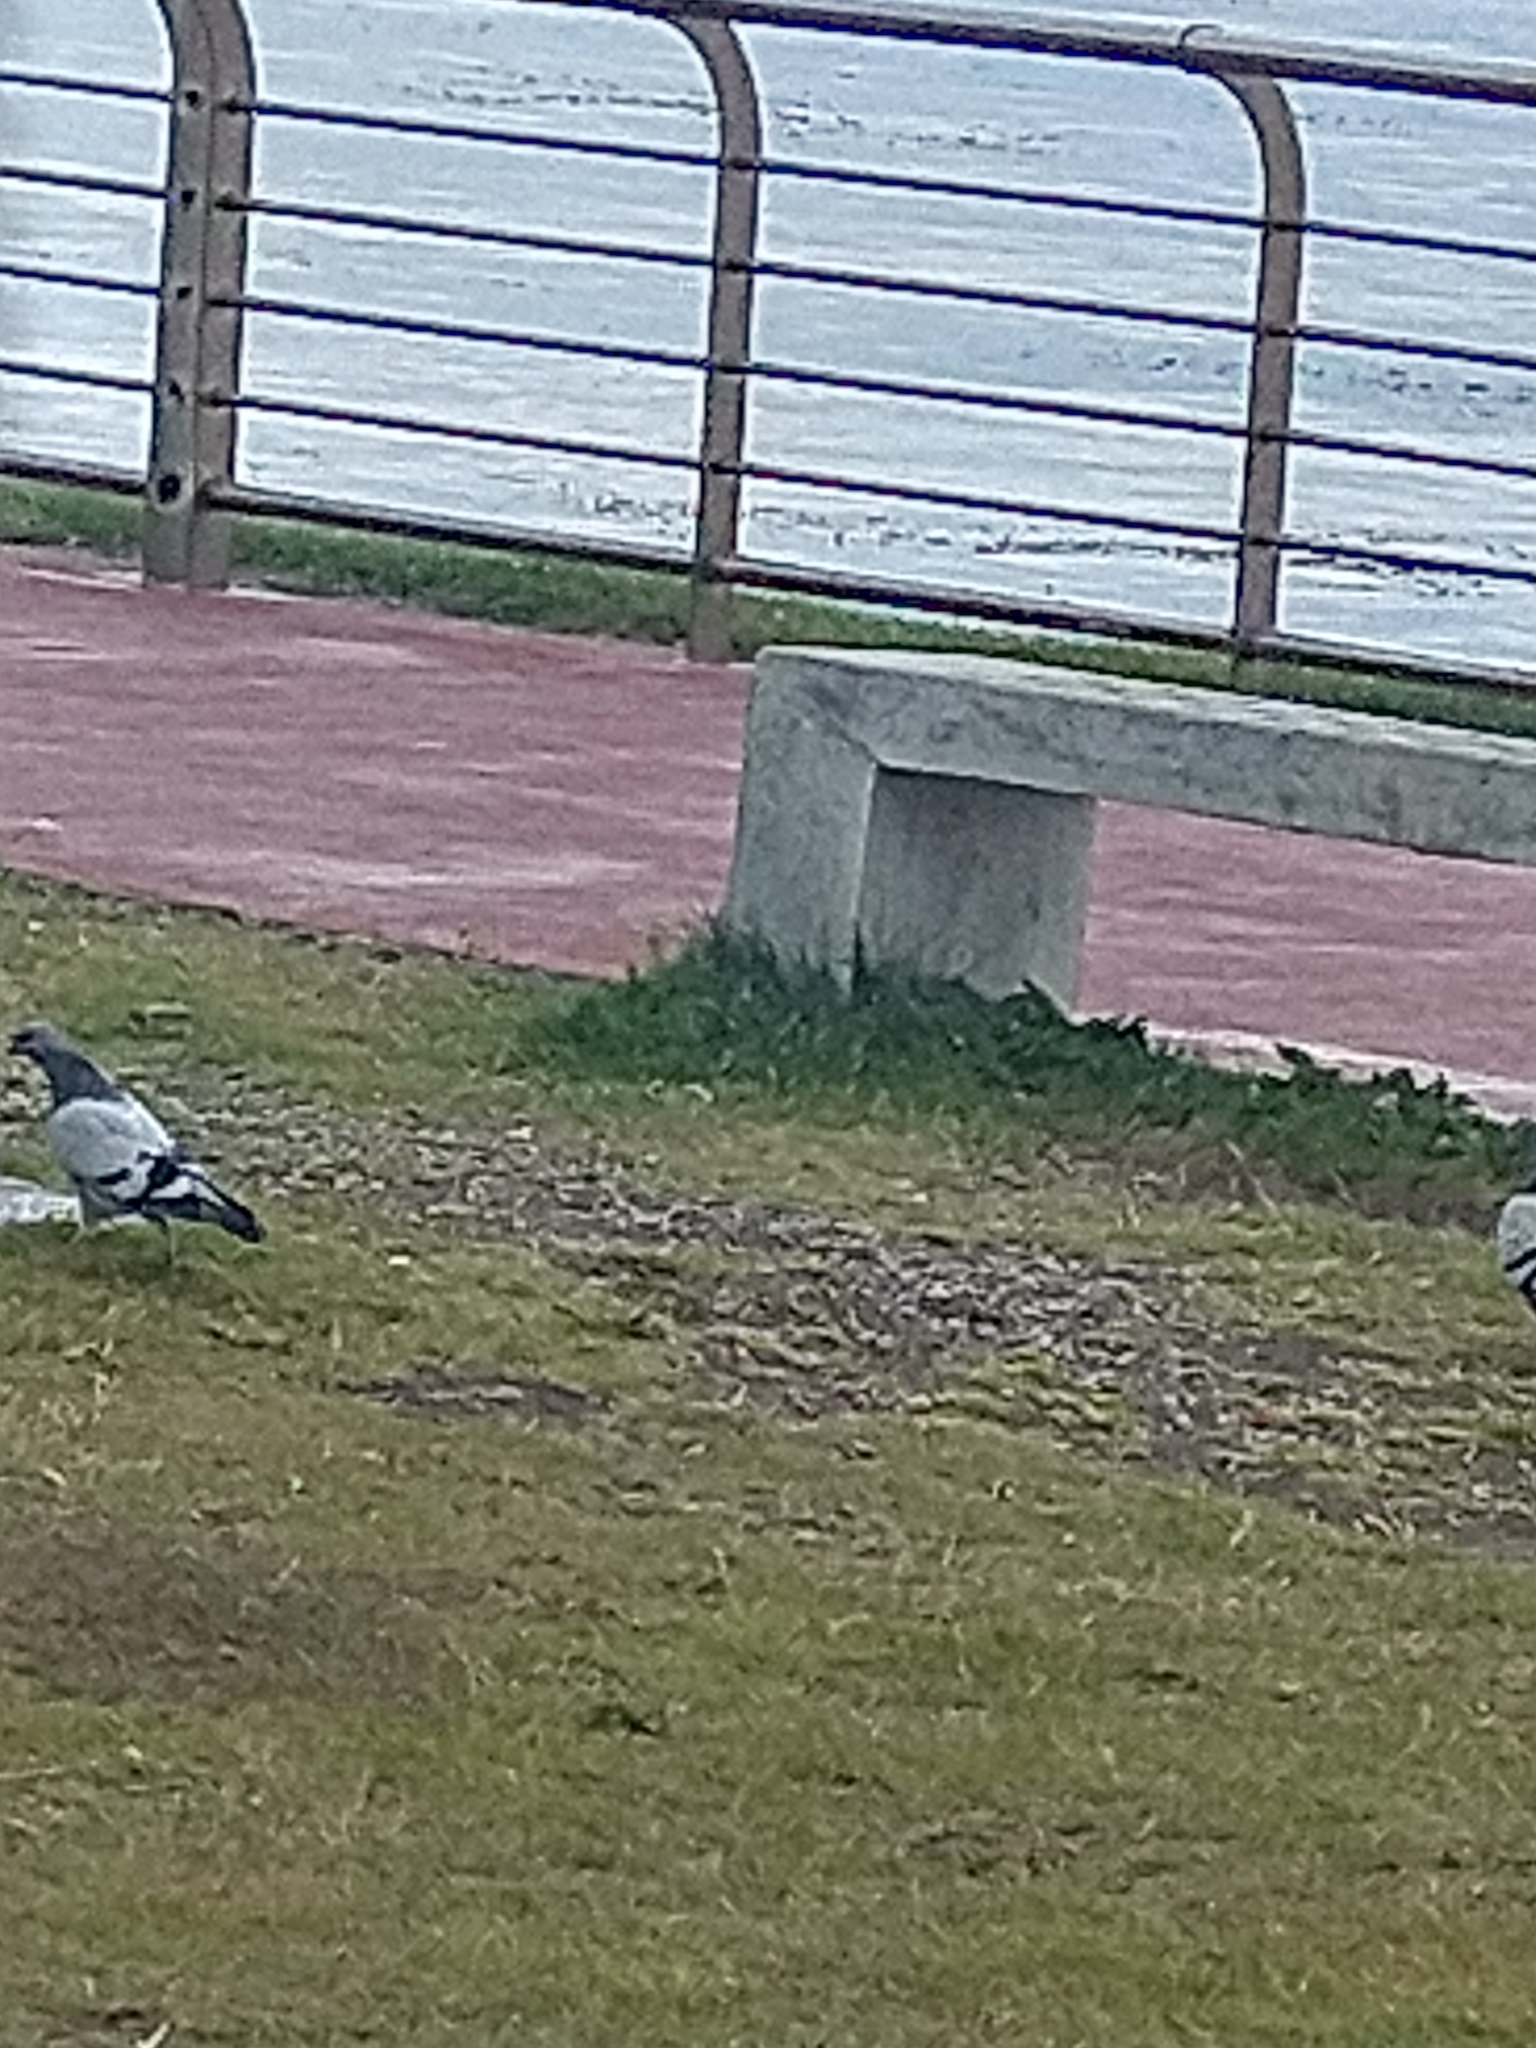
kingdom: Animalia
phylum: Chordata
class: Aves
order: Columbiformes
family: Columbidae
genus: Columba
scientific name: Columba livia
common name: Rock pigeon
